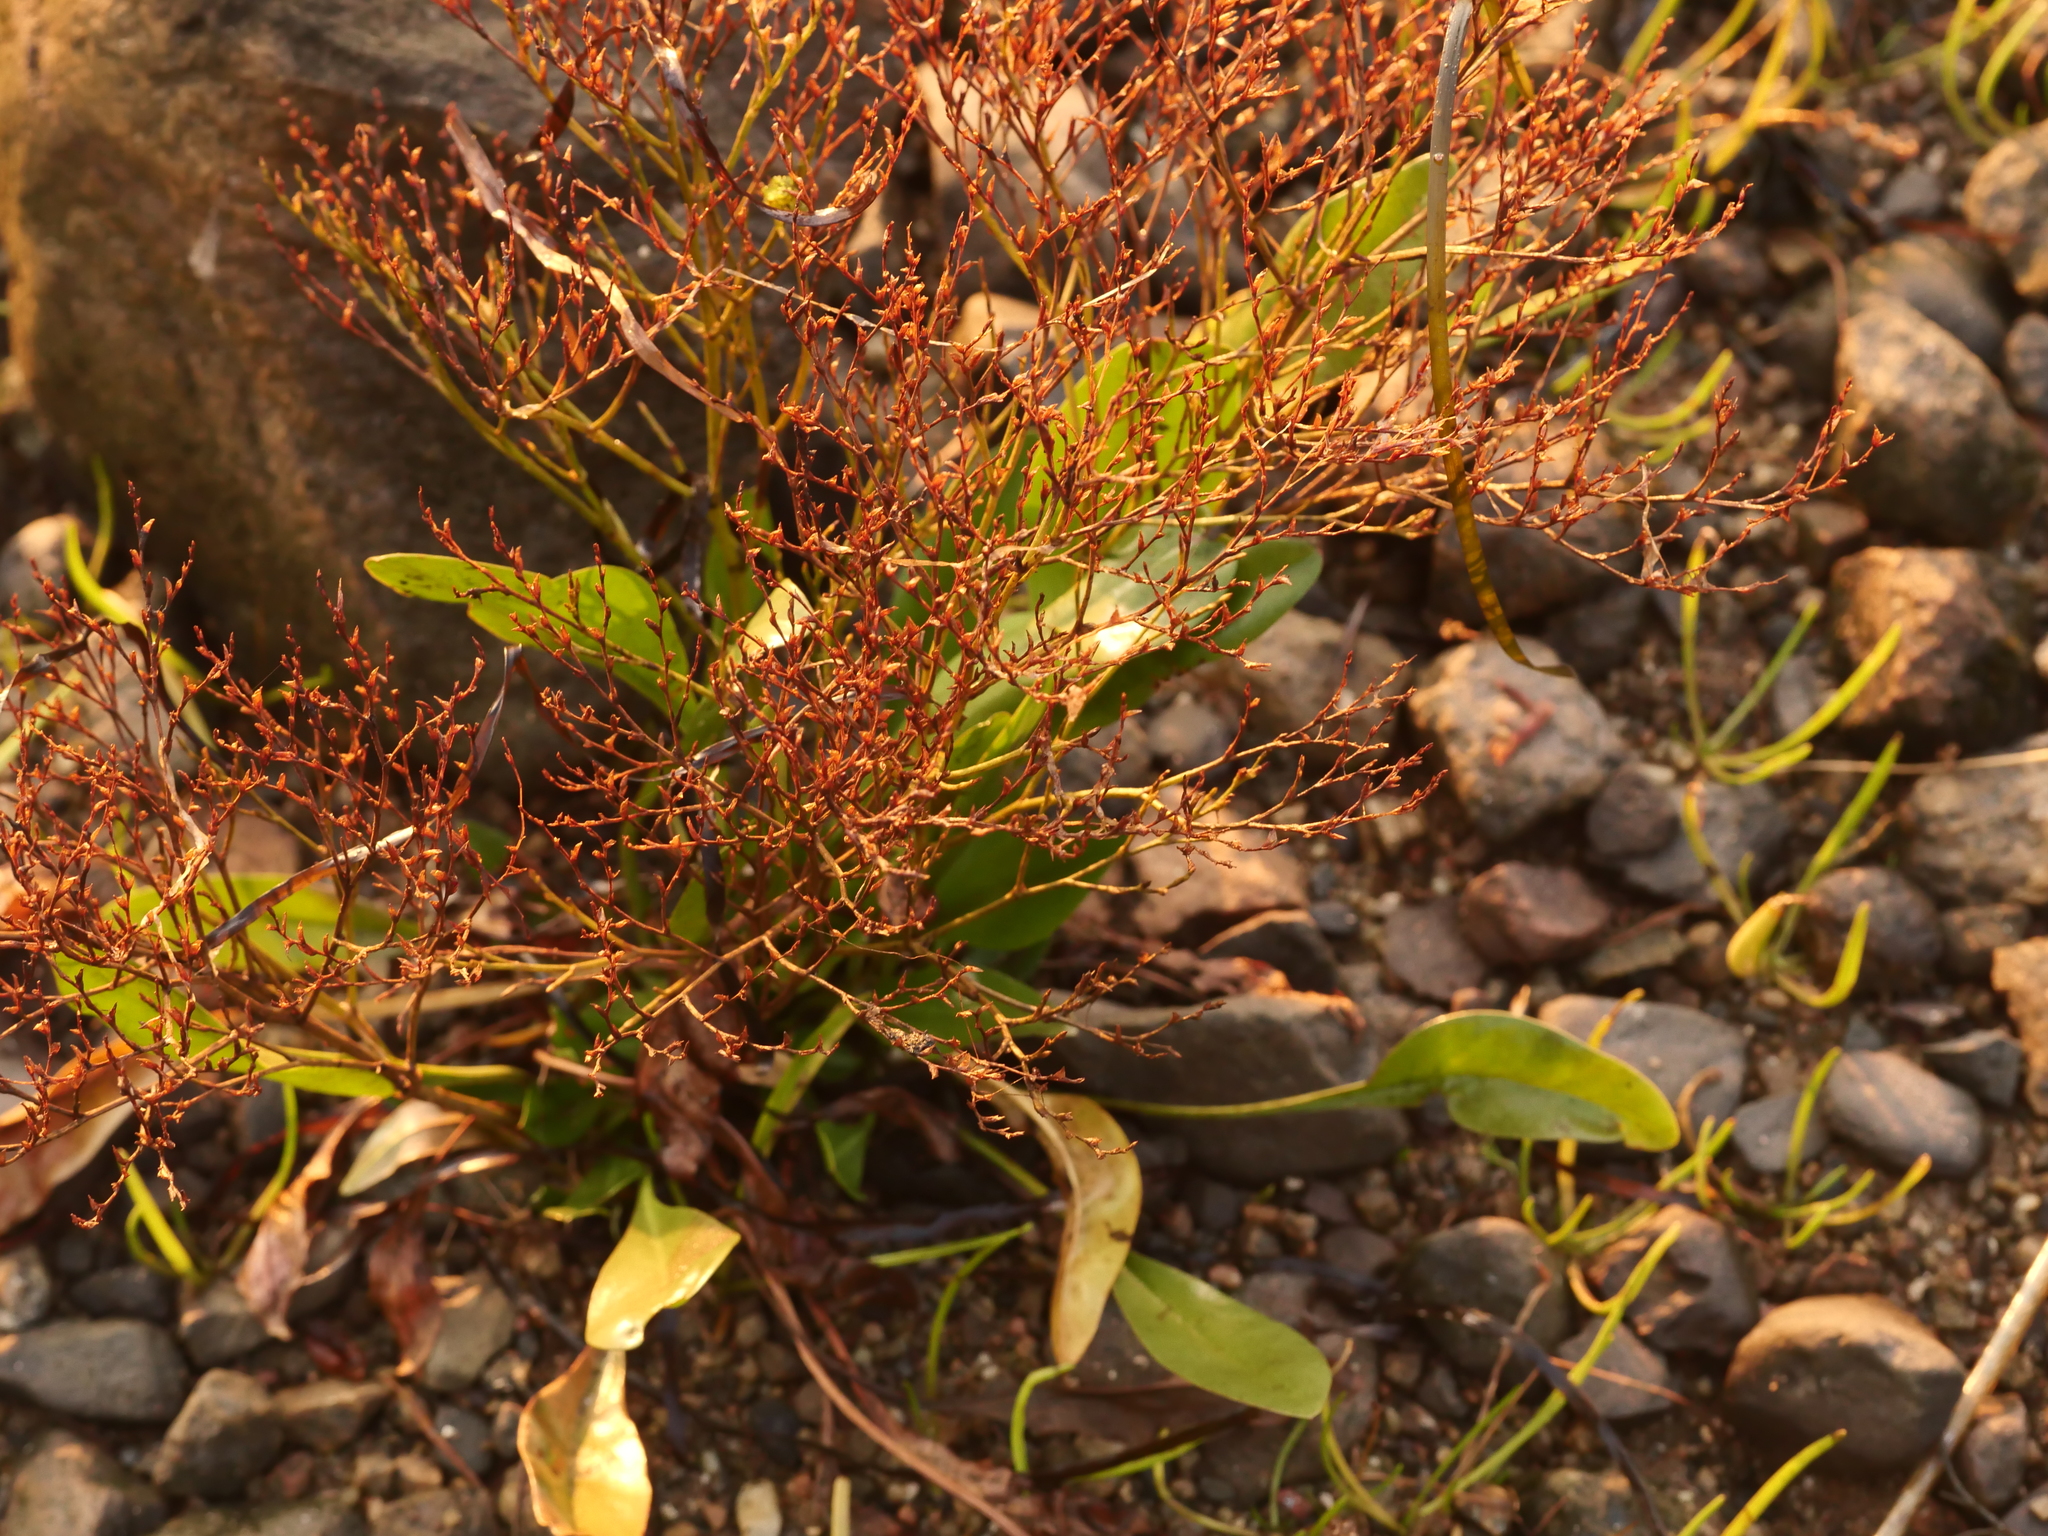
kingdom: Plantae
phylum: Tracheophyta
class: Magnoliopsida
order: Caryophyllales
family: Plumbaginaceae
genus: Limonium
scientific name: Limonium carolinianum
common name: Carolina sea lavender
